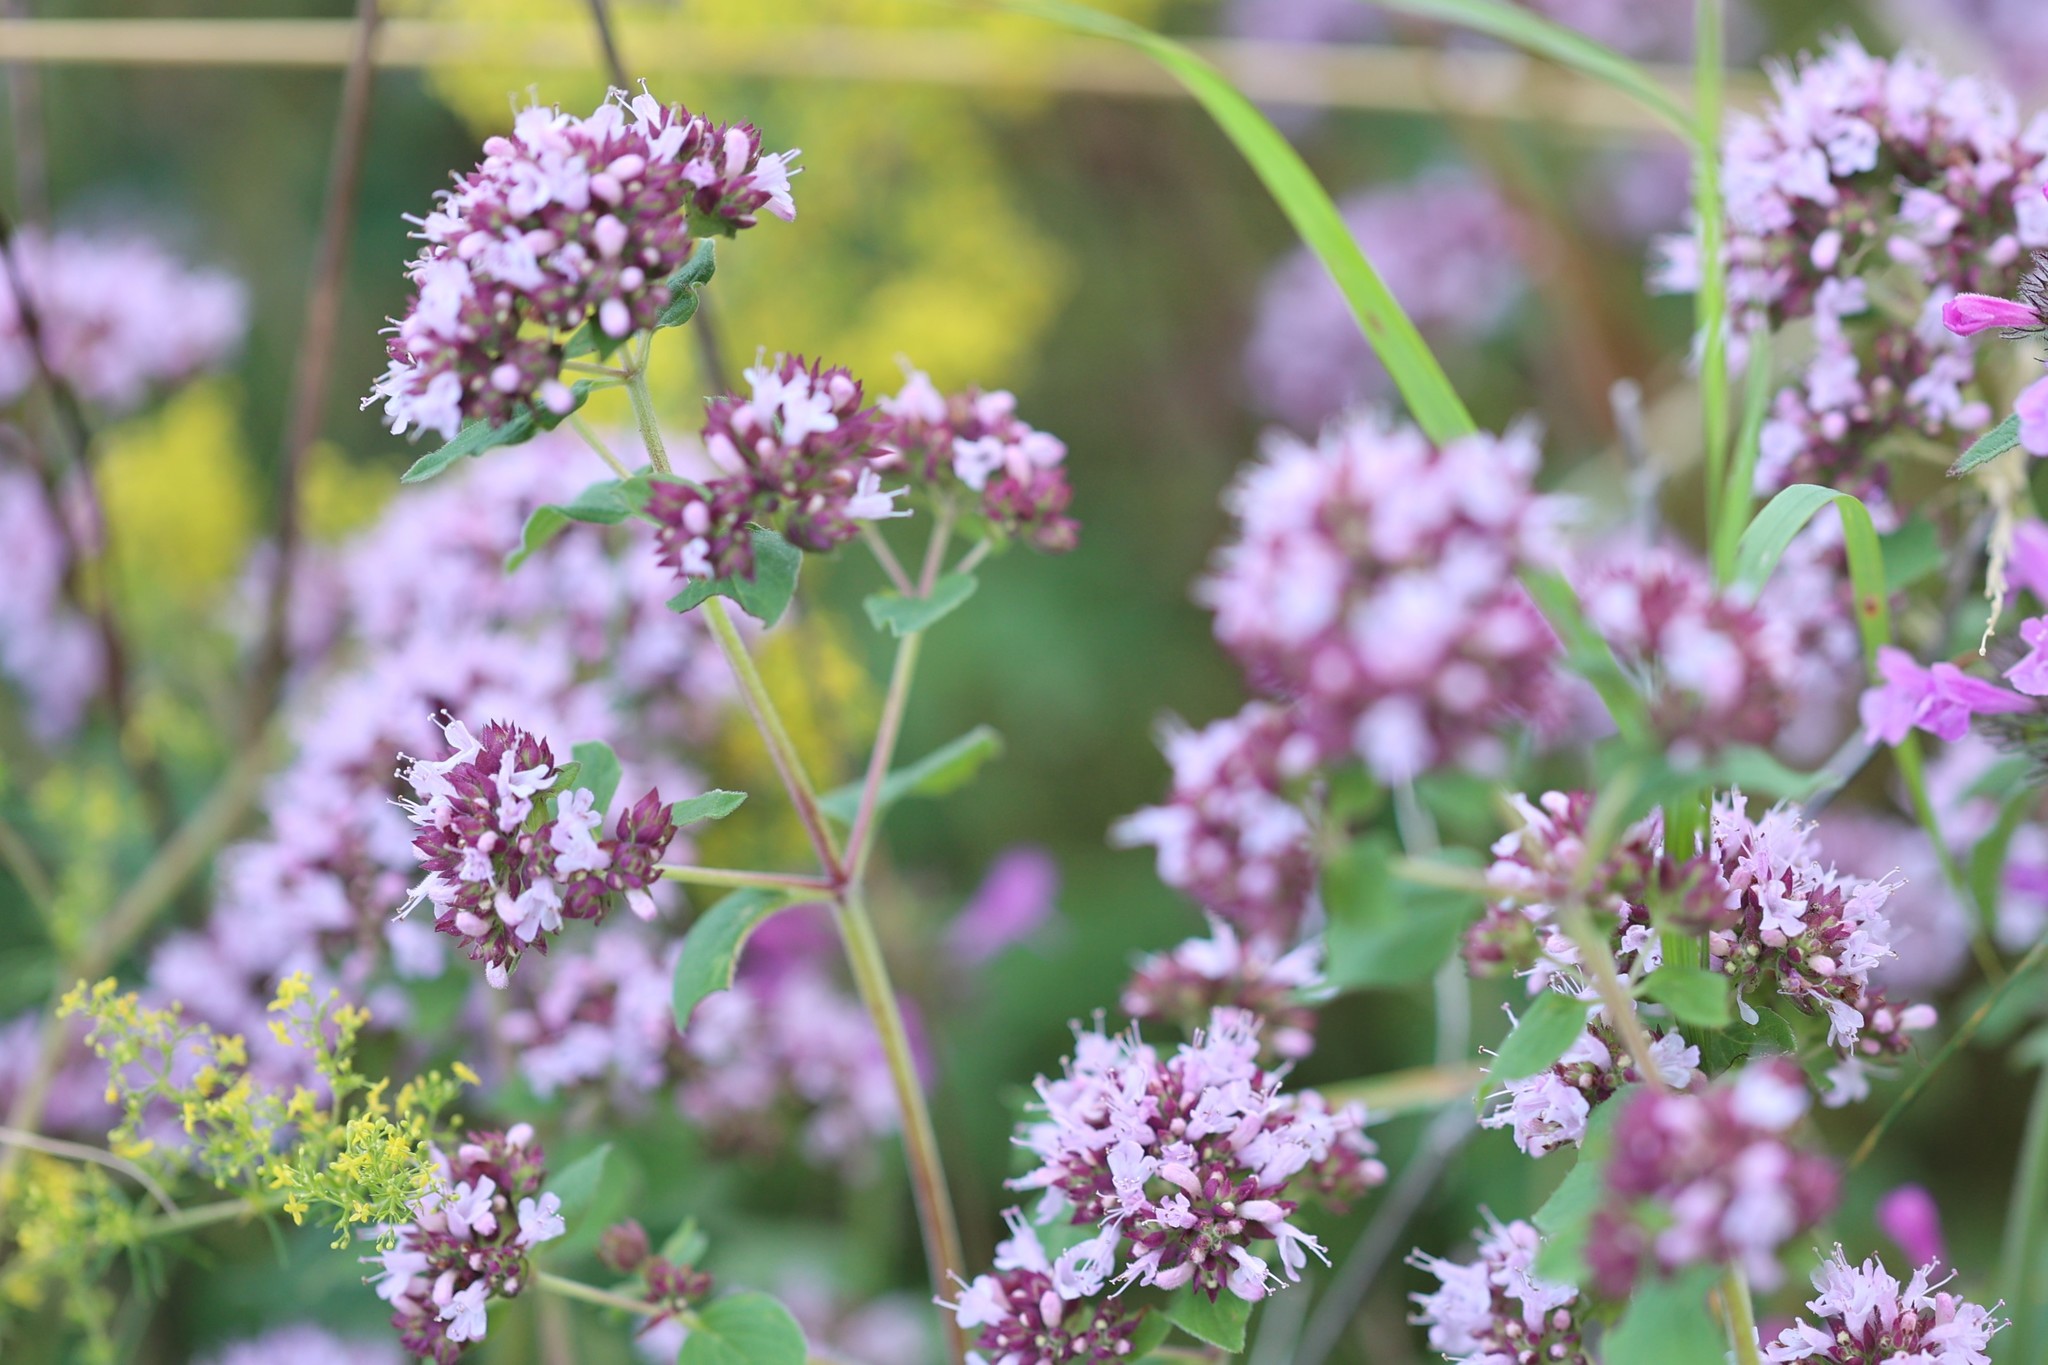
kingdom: Plantae
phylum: Tracheophyta
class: Magnoliopsida
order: Lamiales
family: Lamiaceae
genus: Origanum
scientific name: Origanum vulgare
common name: Wild marjoram
